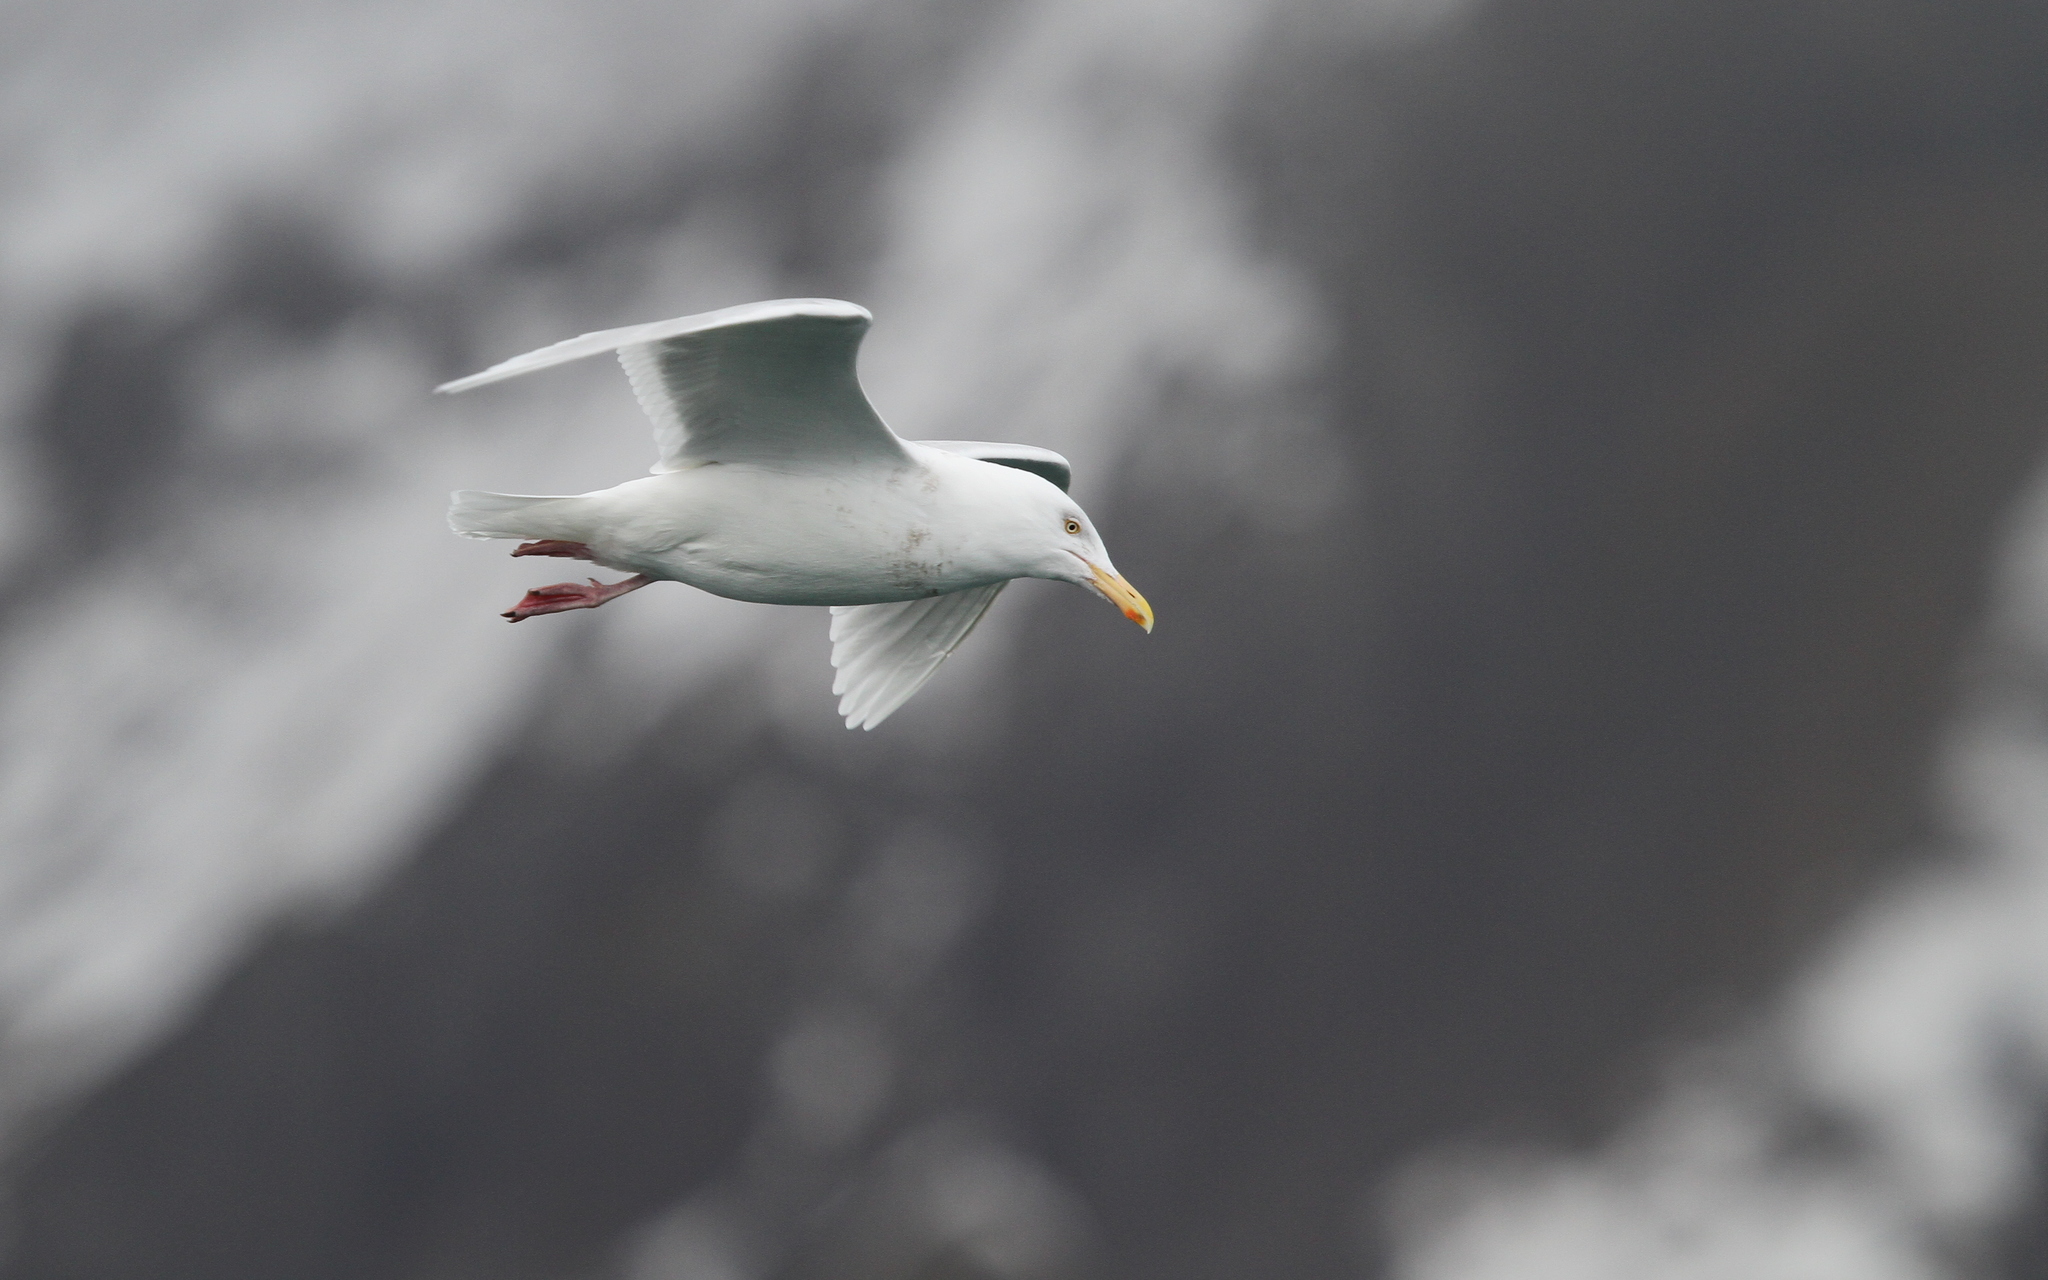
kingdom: Animalia
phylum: Chordata
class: Aves
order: Charadriiformes
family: Laridae
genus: Larus
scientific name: Larus hyperboreus
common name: Glaucous gull
